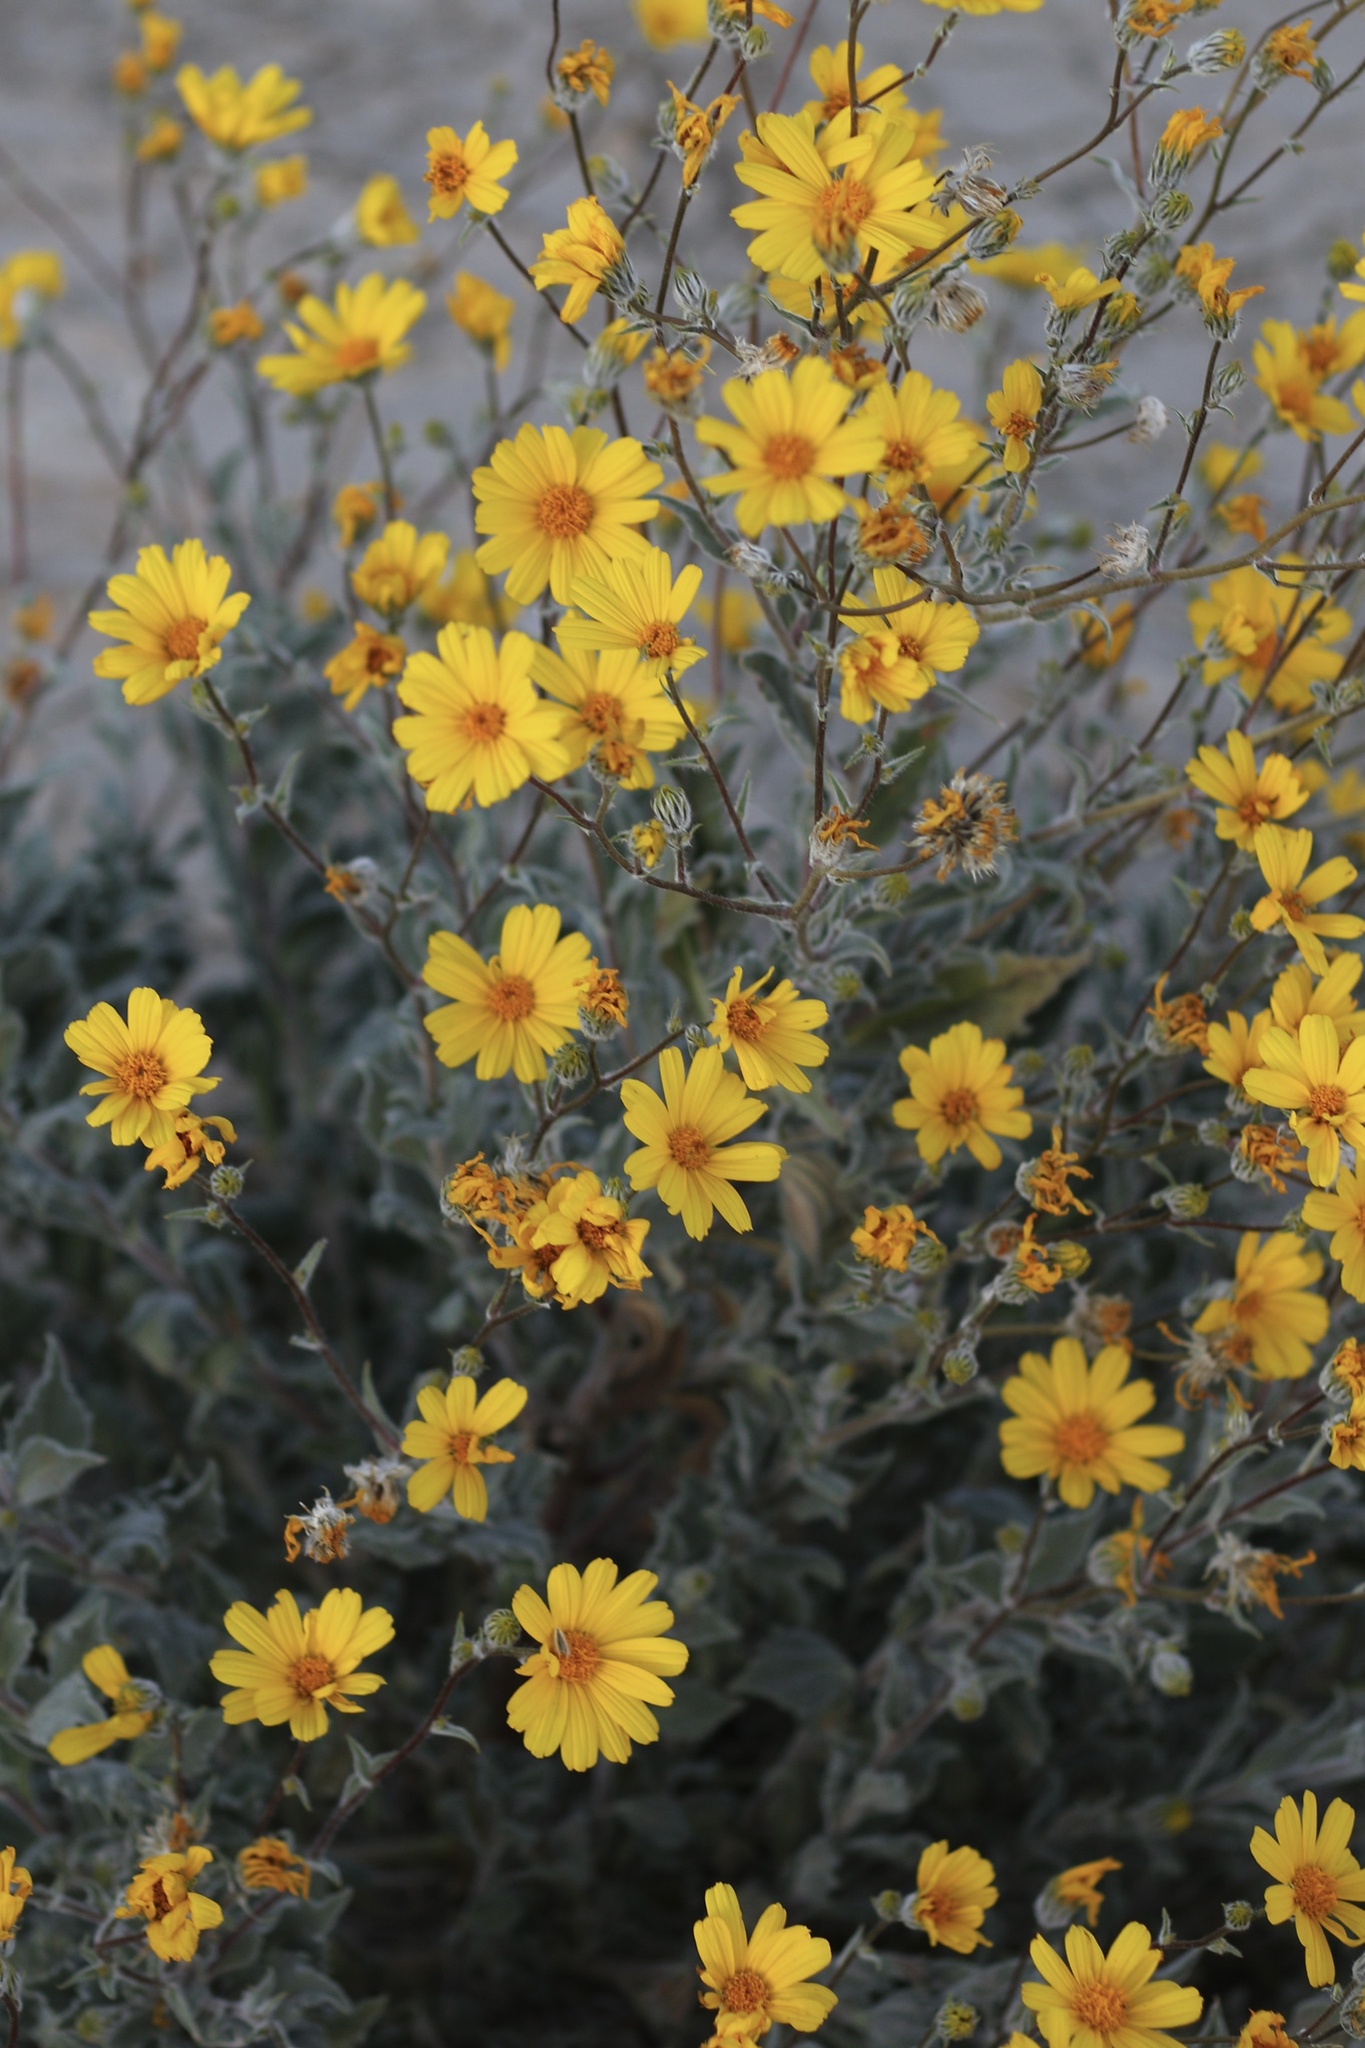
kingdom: Plantae
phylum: Tracheophyta
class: Magnoliopsida
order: Asterales
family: Asteraceae
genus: Geraea
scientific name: Geraea canescens
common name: Desert-gold
